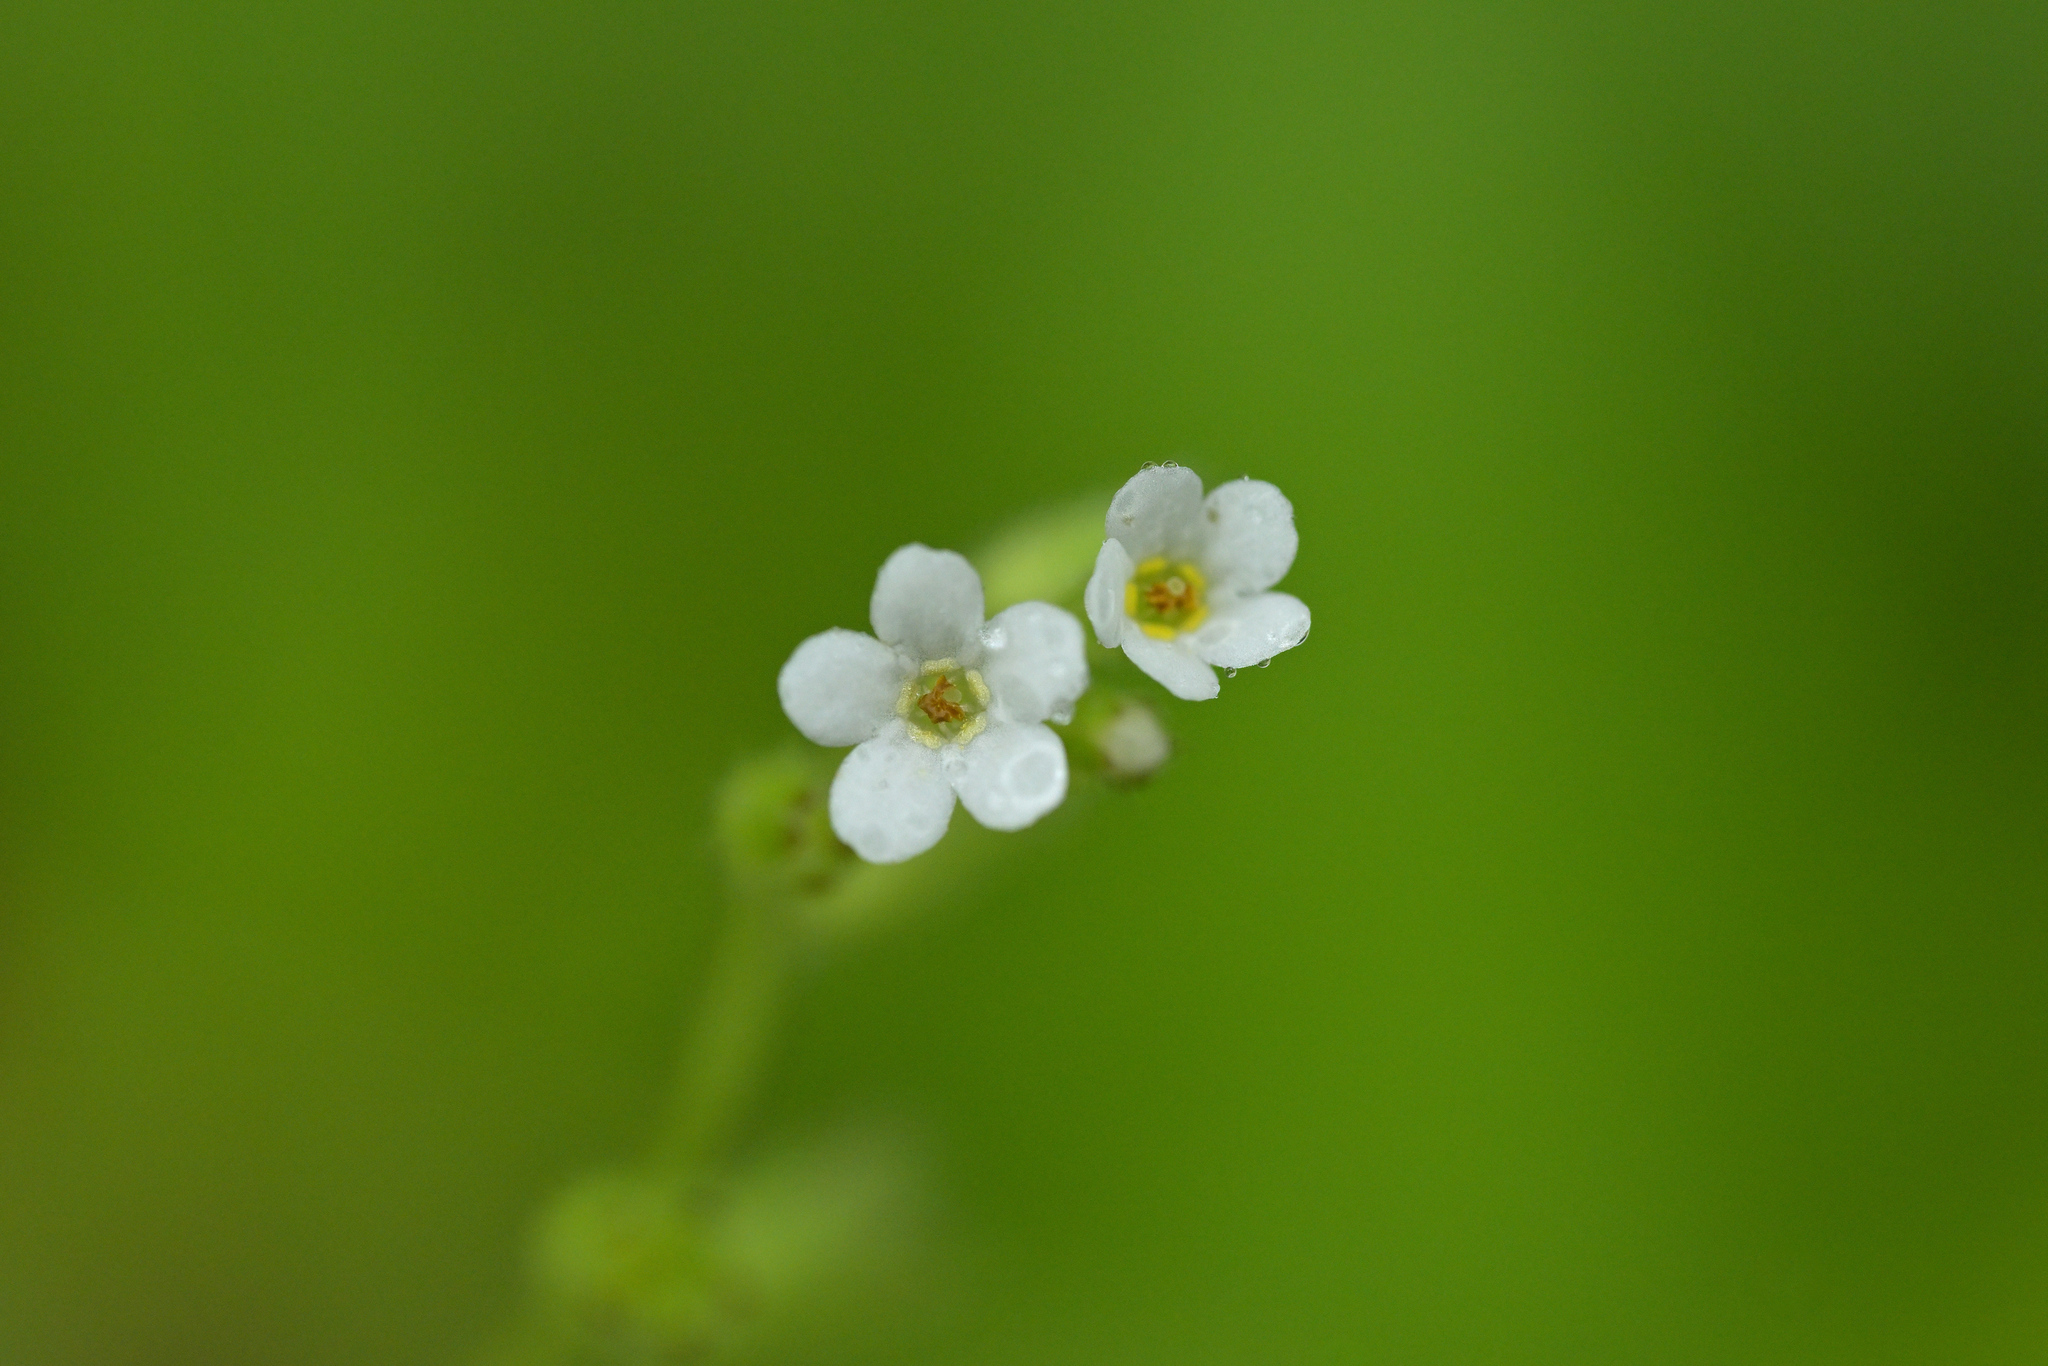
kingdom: Plantae
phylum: Tracheophyta
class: Magnoliopsida
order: Boraginales
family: Boraginaceae
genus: Myosotis
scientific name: Myosotis forsteri
